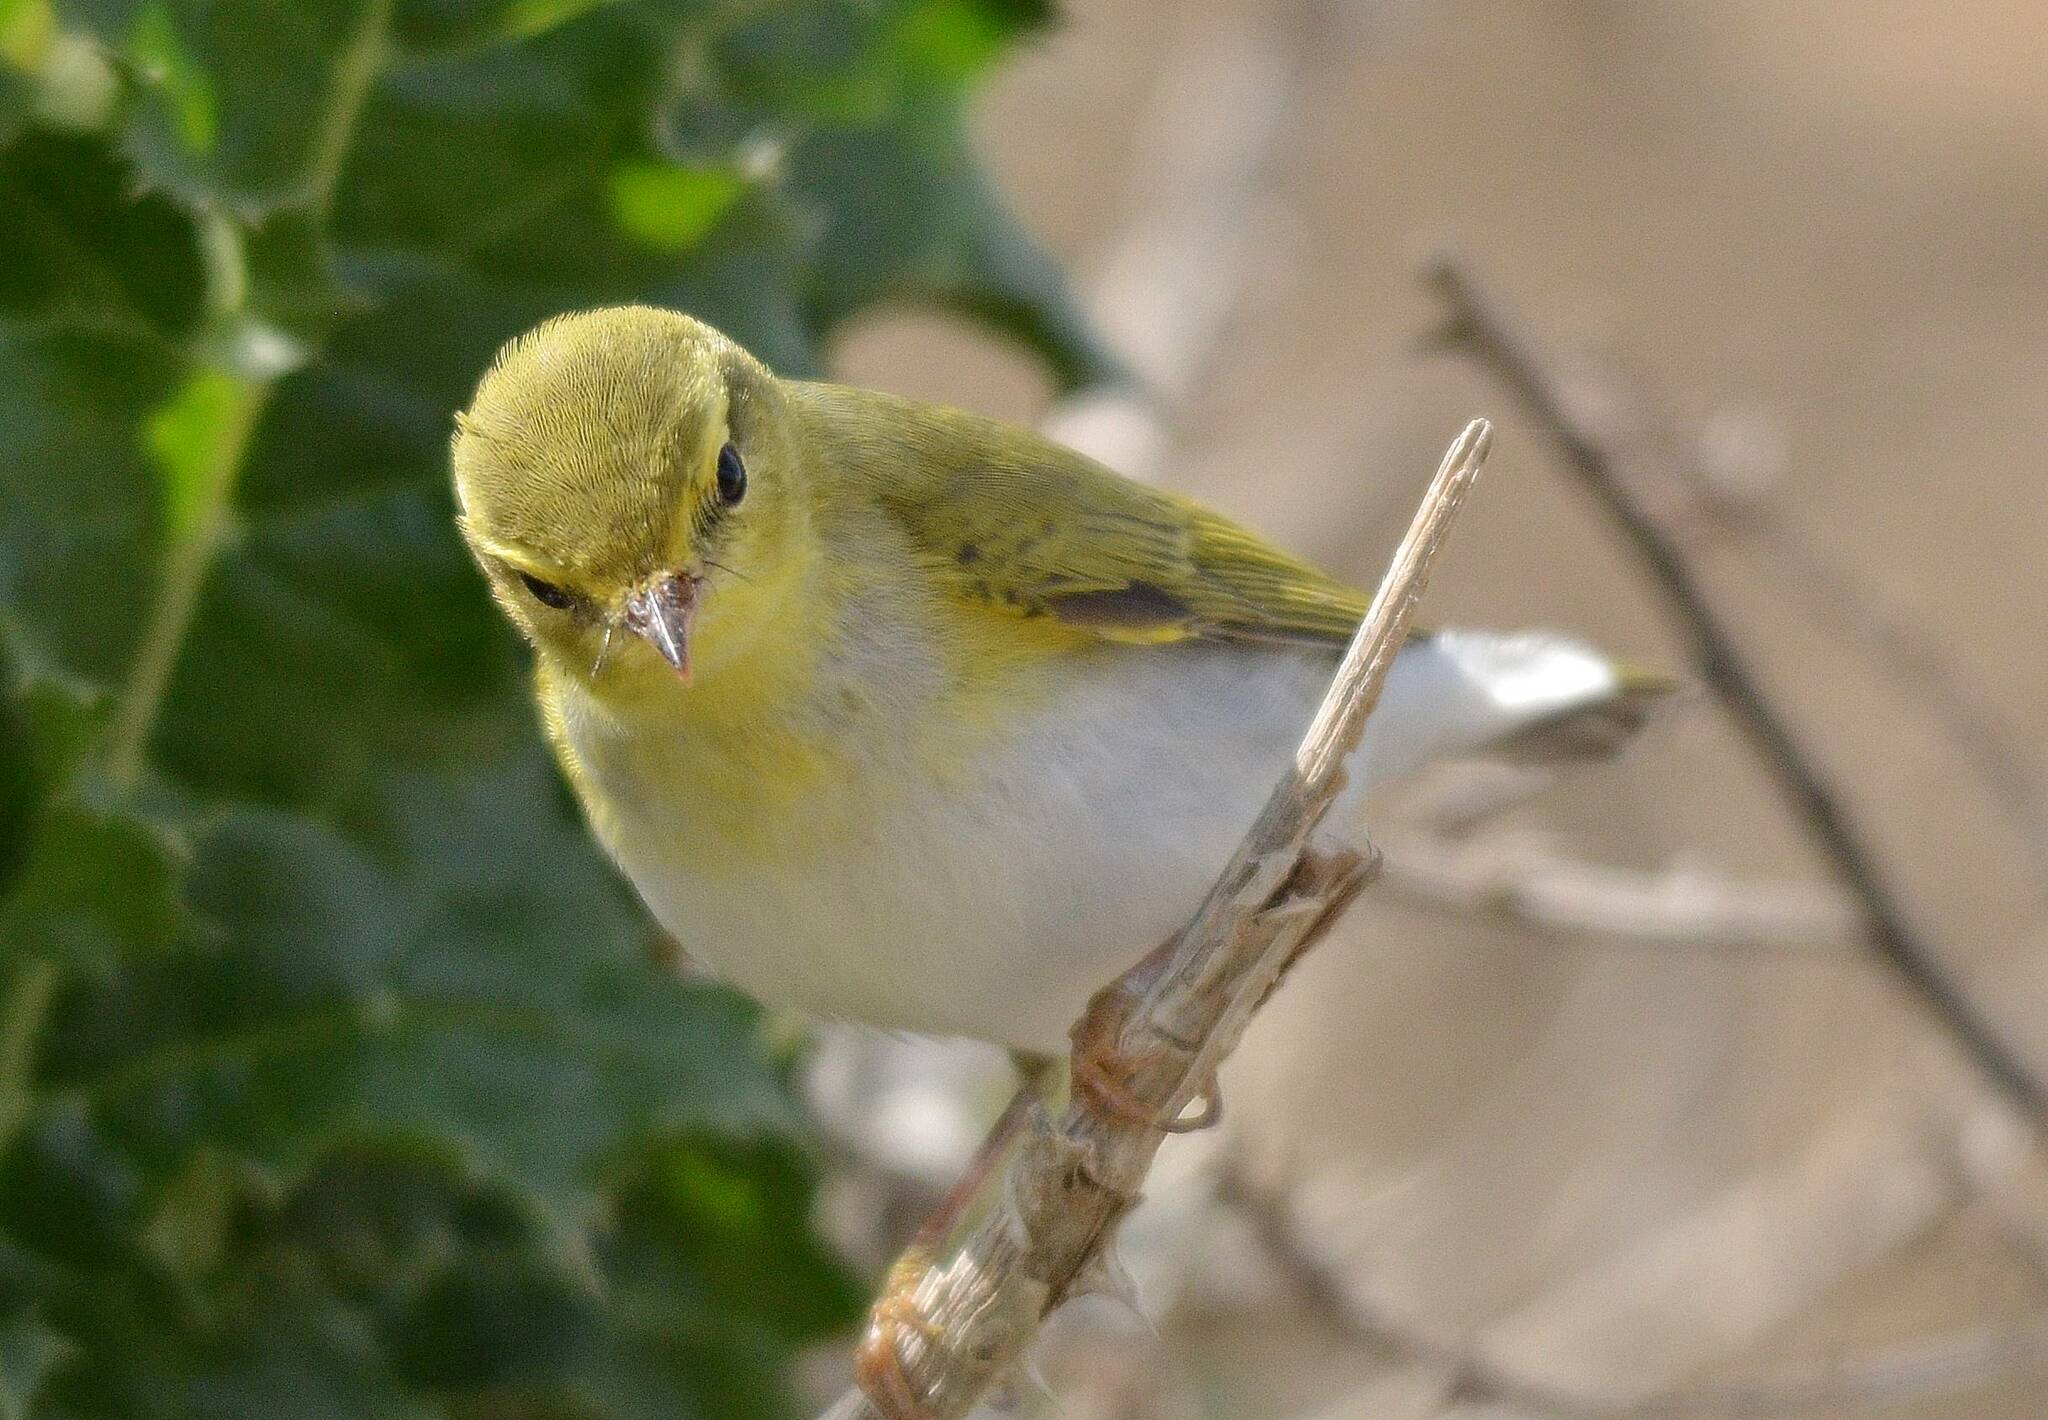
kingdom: Animalia
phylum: Chordata
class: Aves
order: Passeriformes
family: Phylloscopidae
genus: Phylloscopus
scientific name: Phylloscopus sibillatrix
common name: Wood warbler
